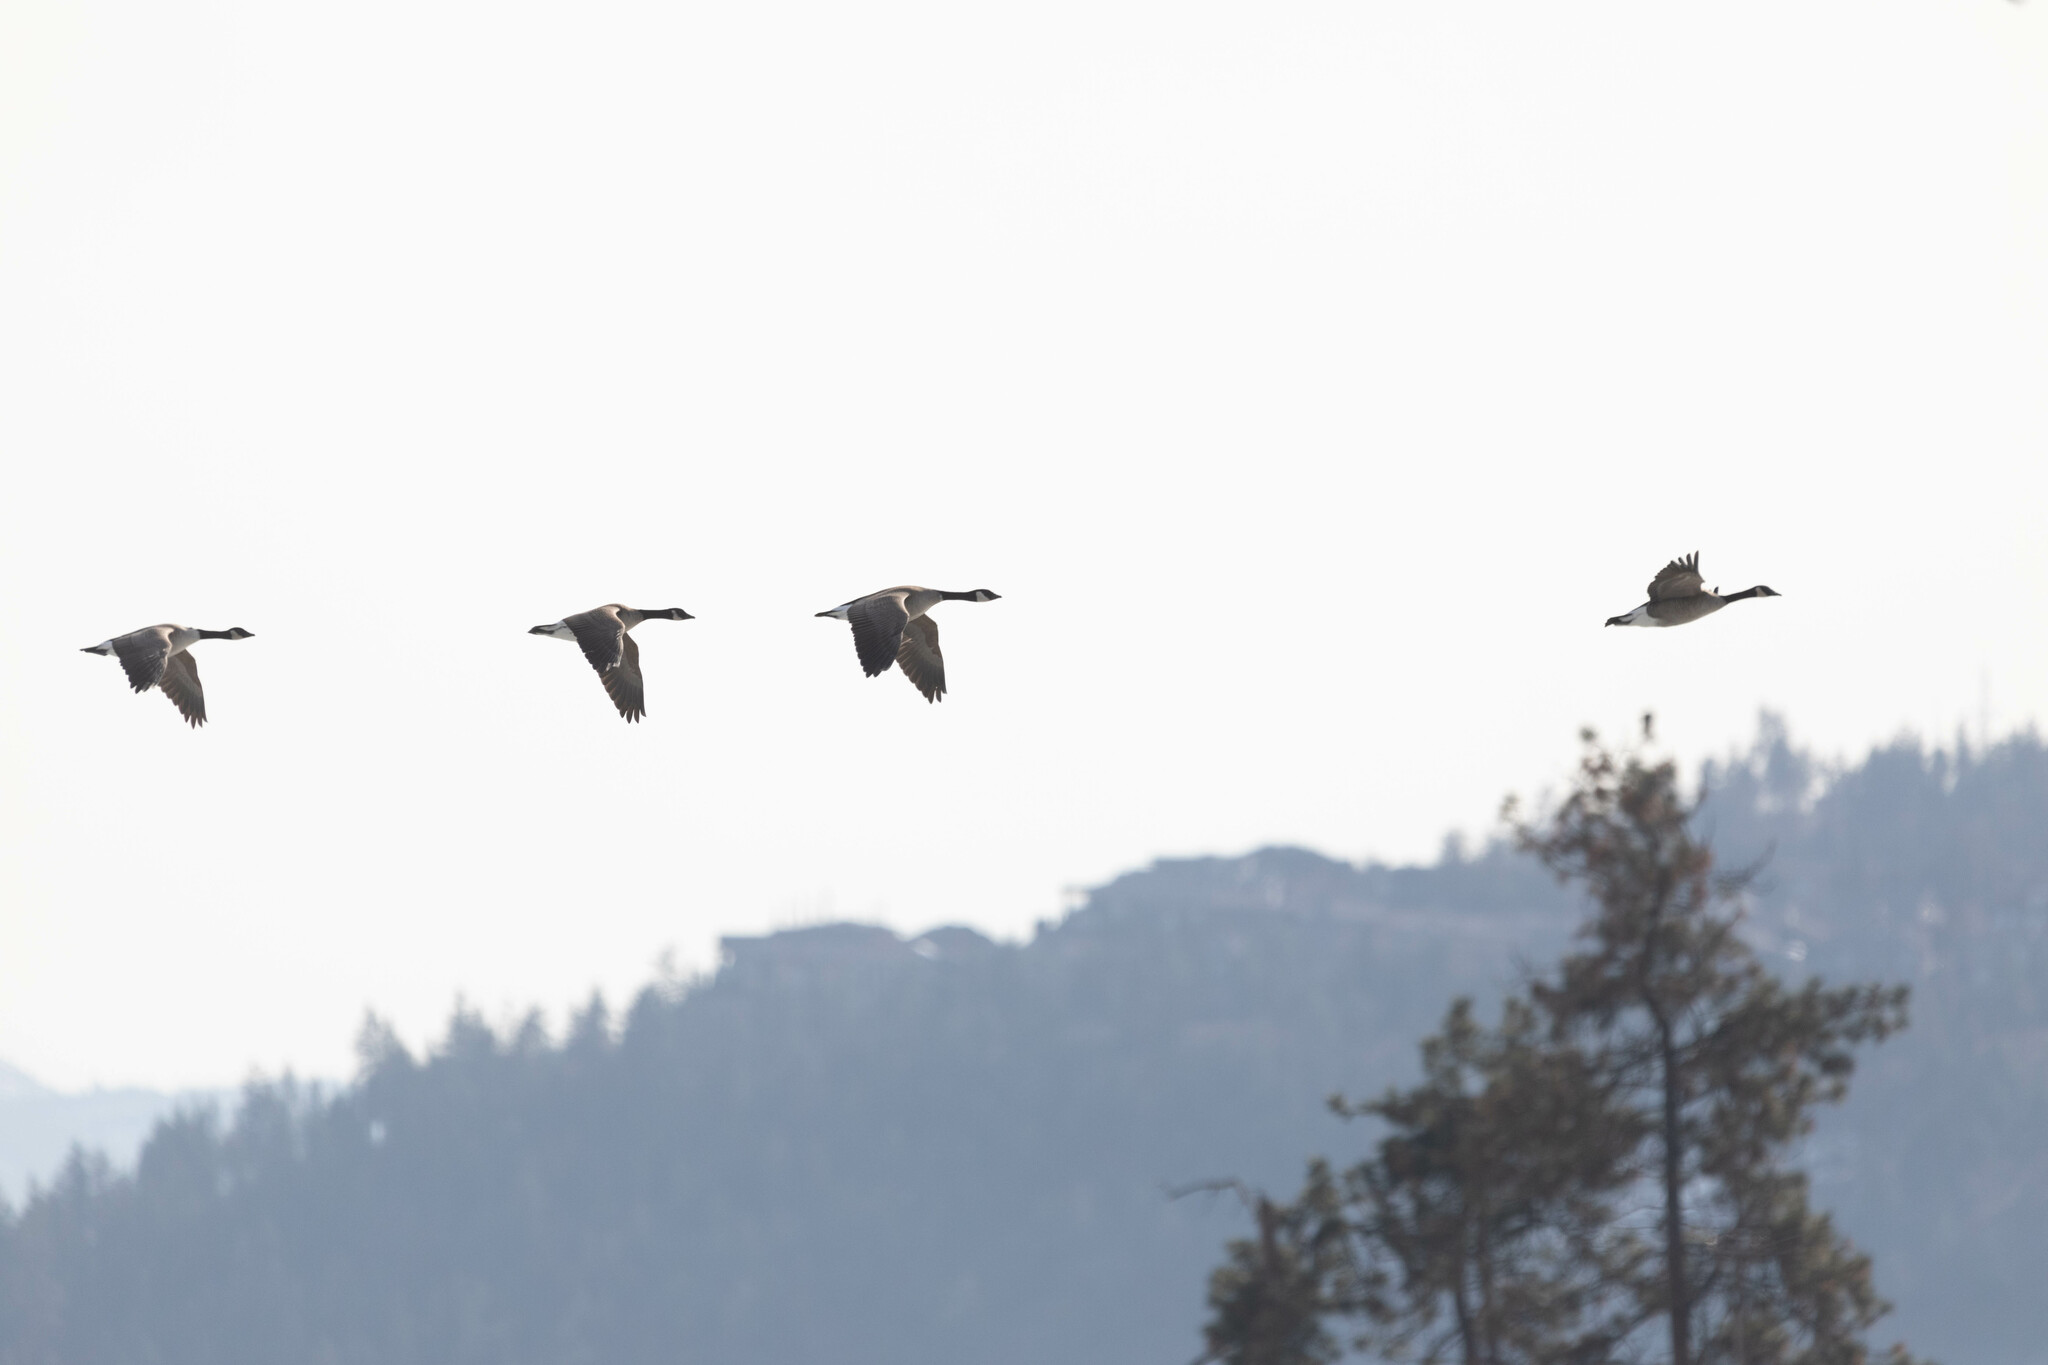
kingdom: Animalia
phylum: Chordata
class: Aves
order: Anseriformes
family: Anatidae
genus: Branta
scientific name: Branta canadensis
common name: Canada goose
